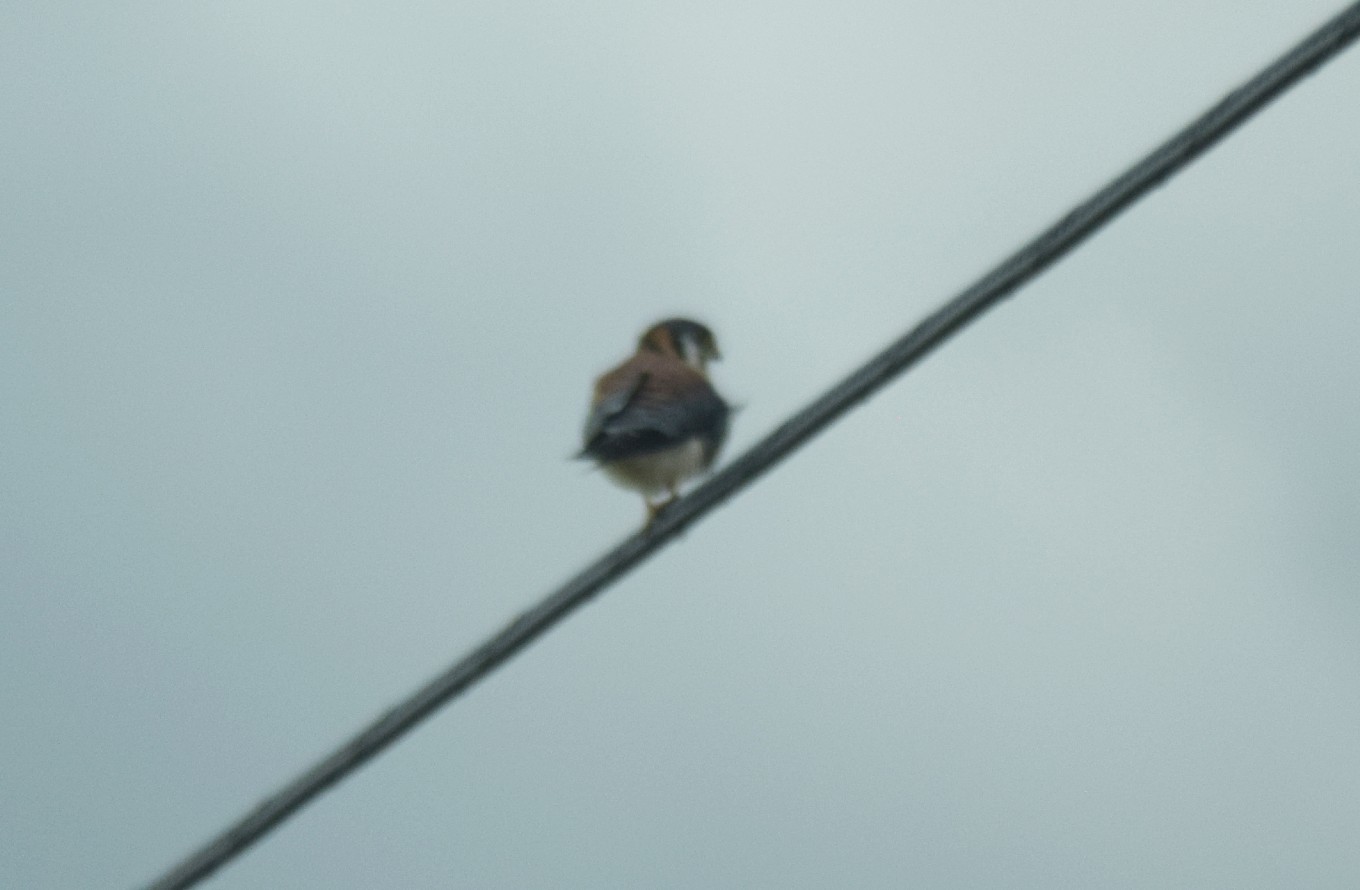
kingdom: Animalia
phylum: Chordata
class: Aves
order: Falconiformes
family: Falconidae
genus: Falco
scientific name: Falco sparverius
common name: American kestrel
